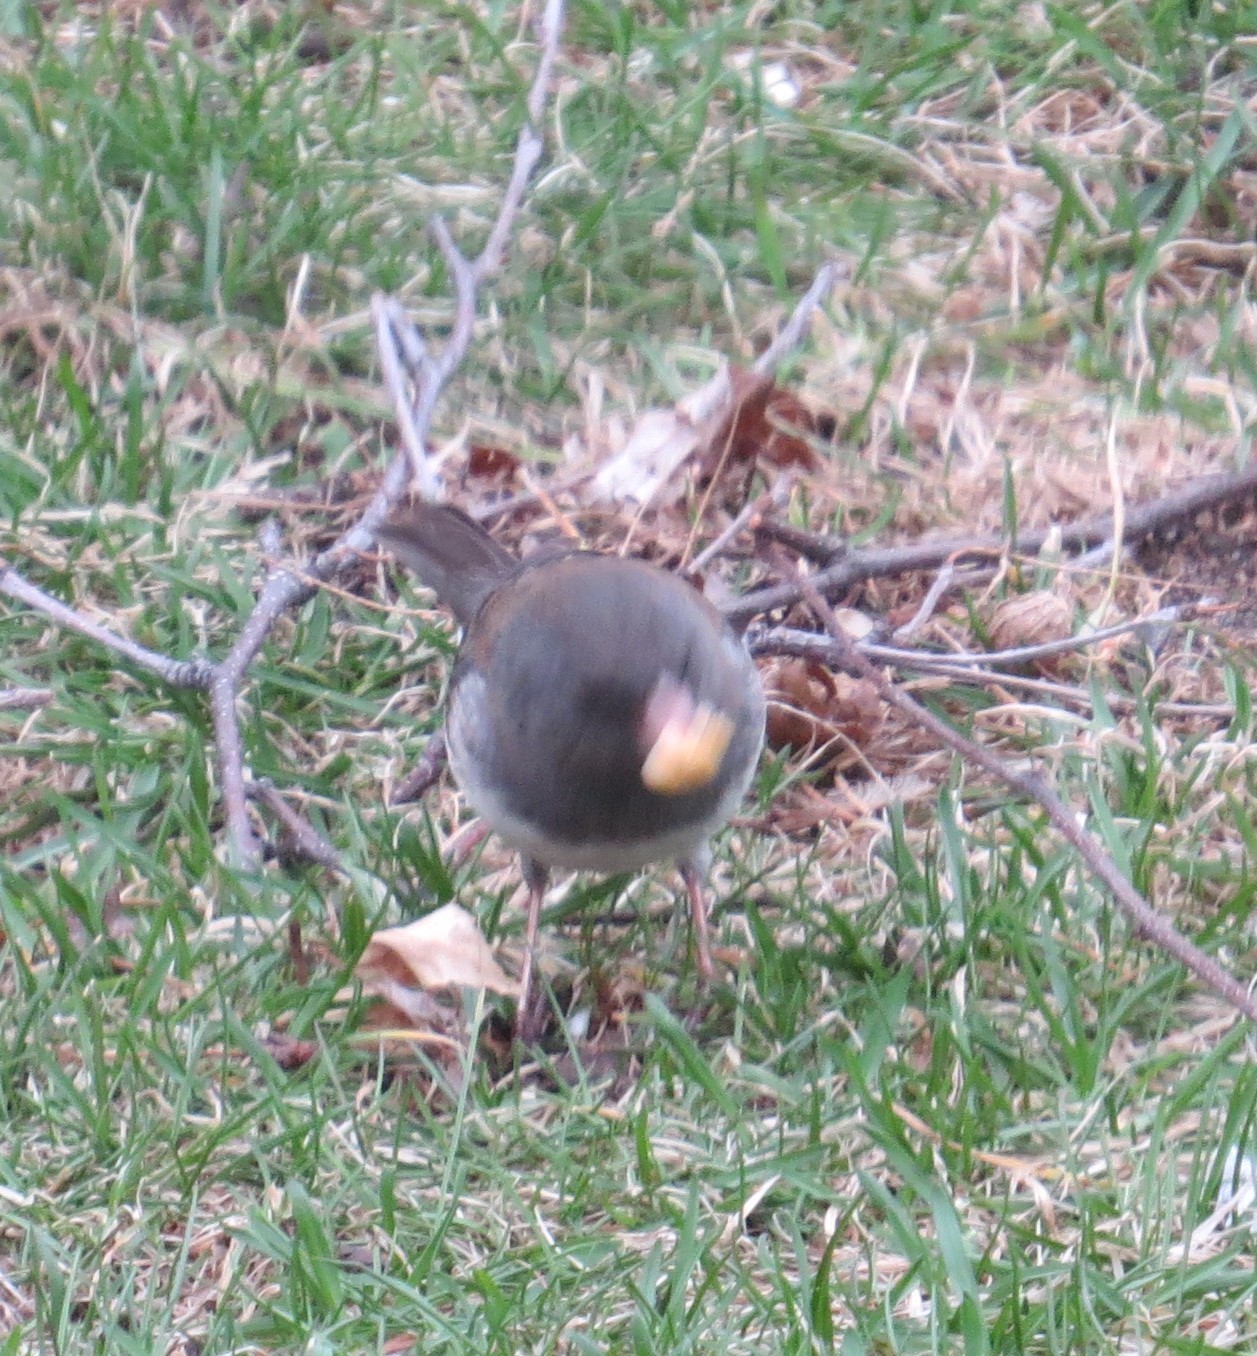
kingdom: Animalia
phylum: Chordata
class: Aves
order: Passeriformes
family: Passerellidae
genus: Junco
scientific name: Junco hyemalis
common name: Dark-eyed junco
